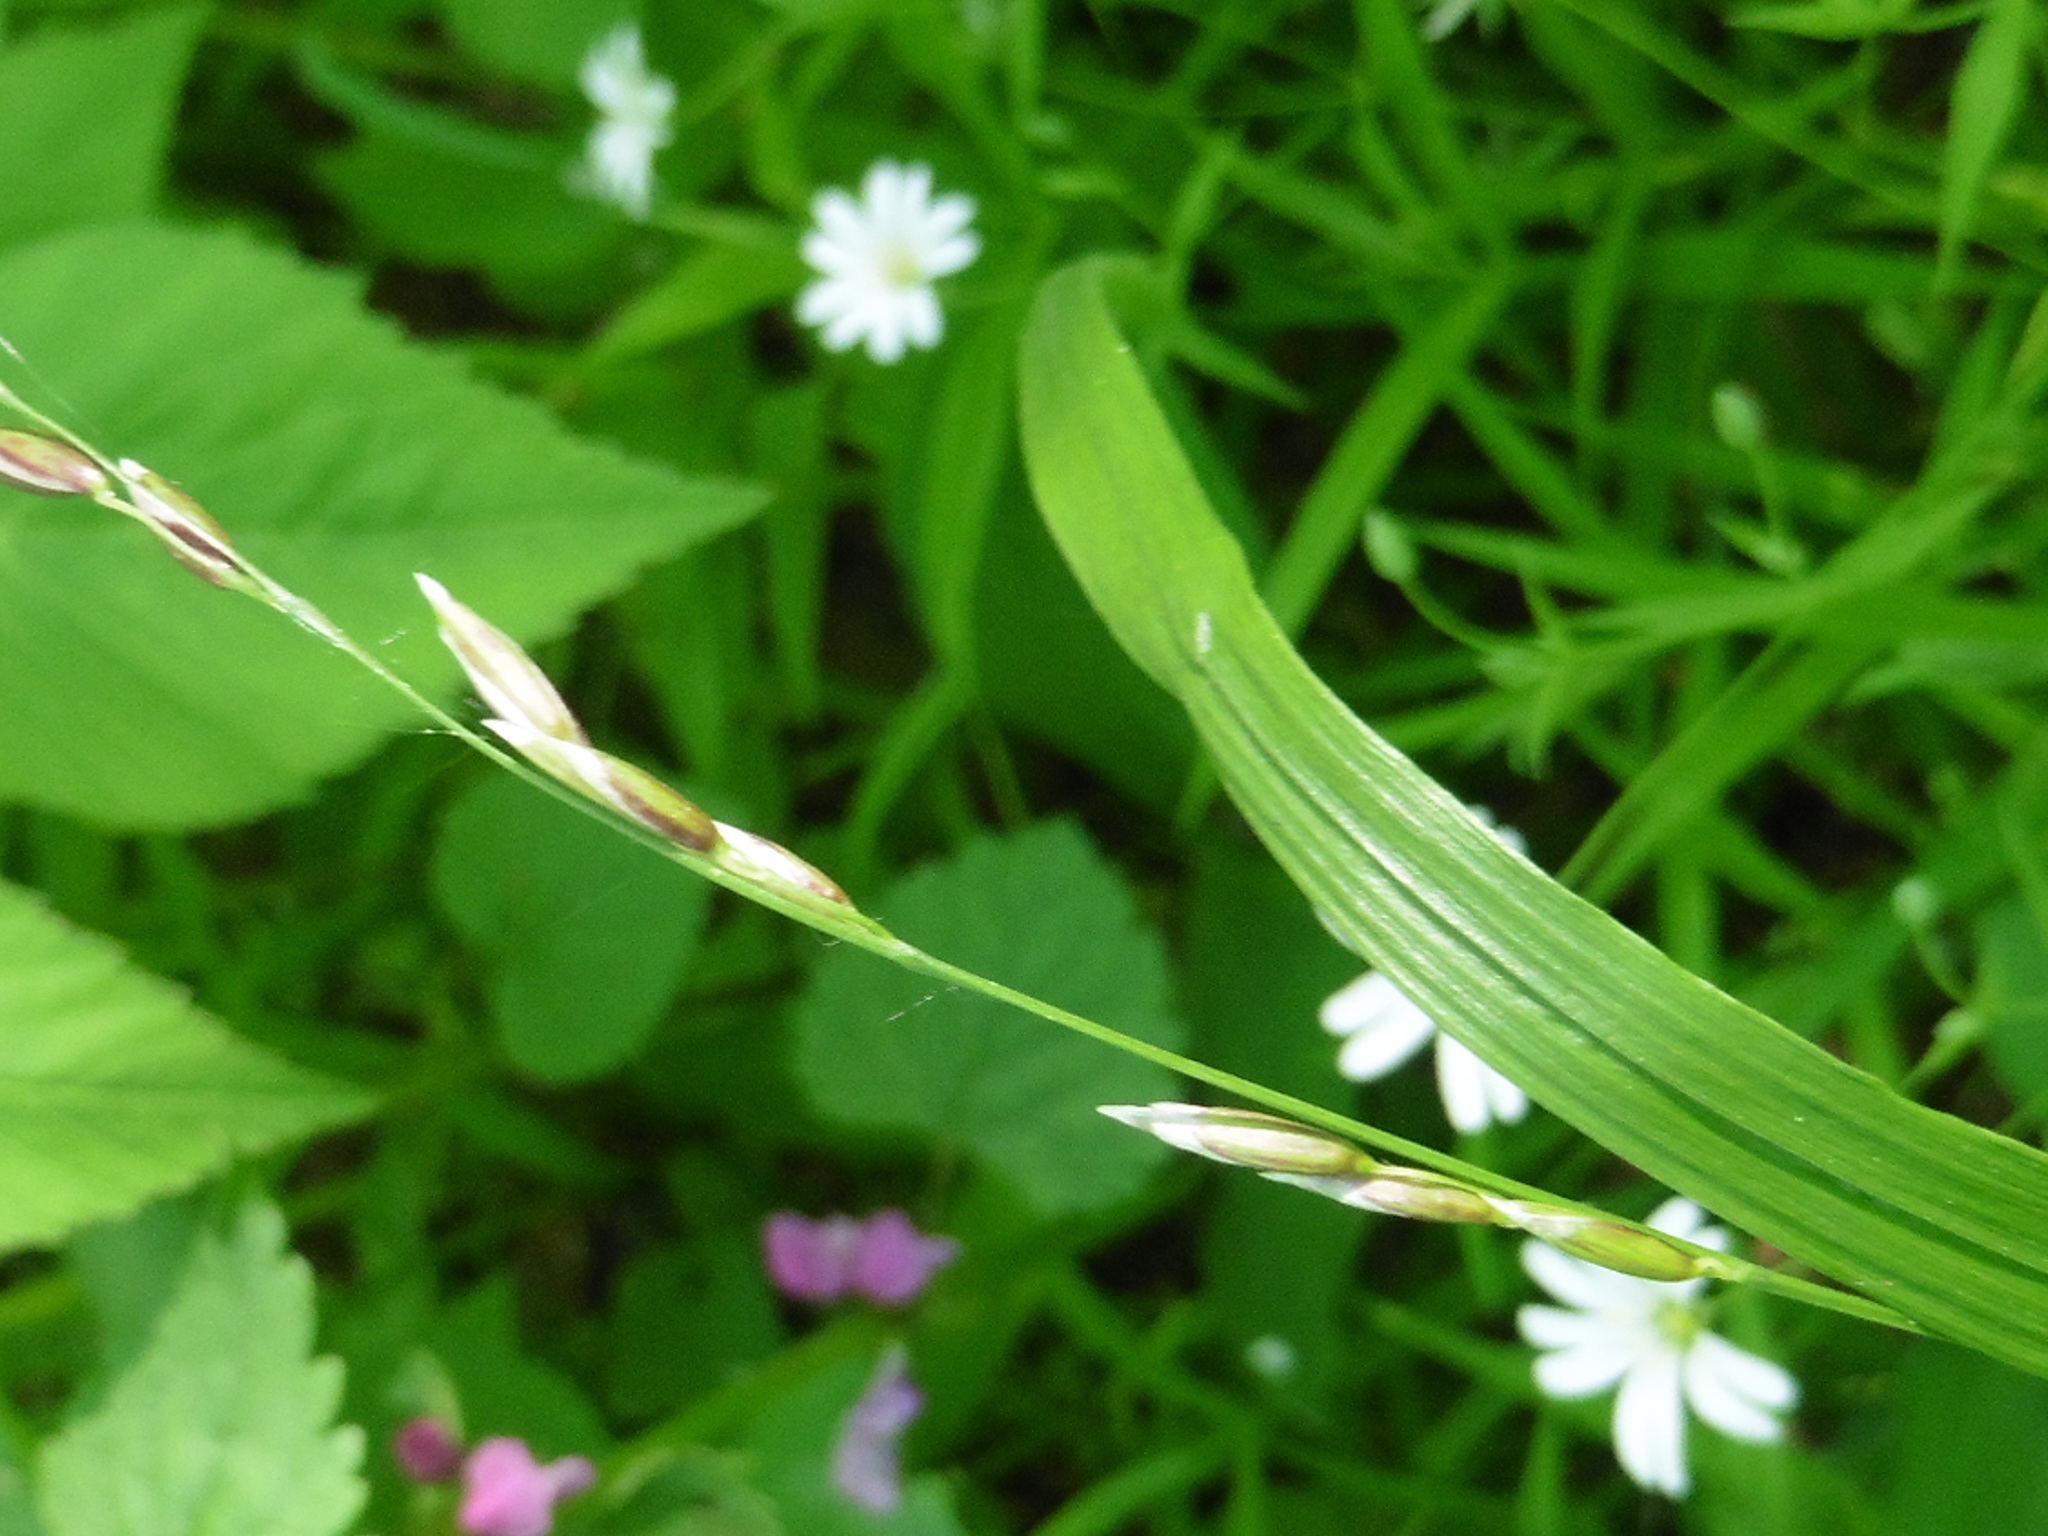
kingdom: Plantae
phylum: Tracheophyta
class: Liliopsida
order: Poales
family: Poaceae
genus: Melica
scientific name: Melica nutans
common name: Mountain melick
